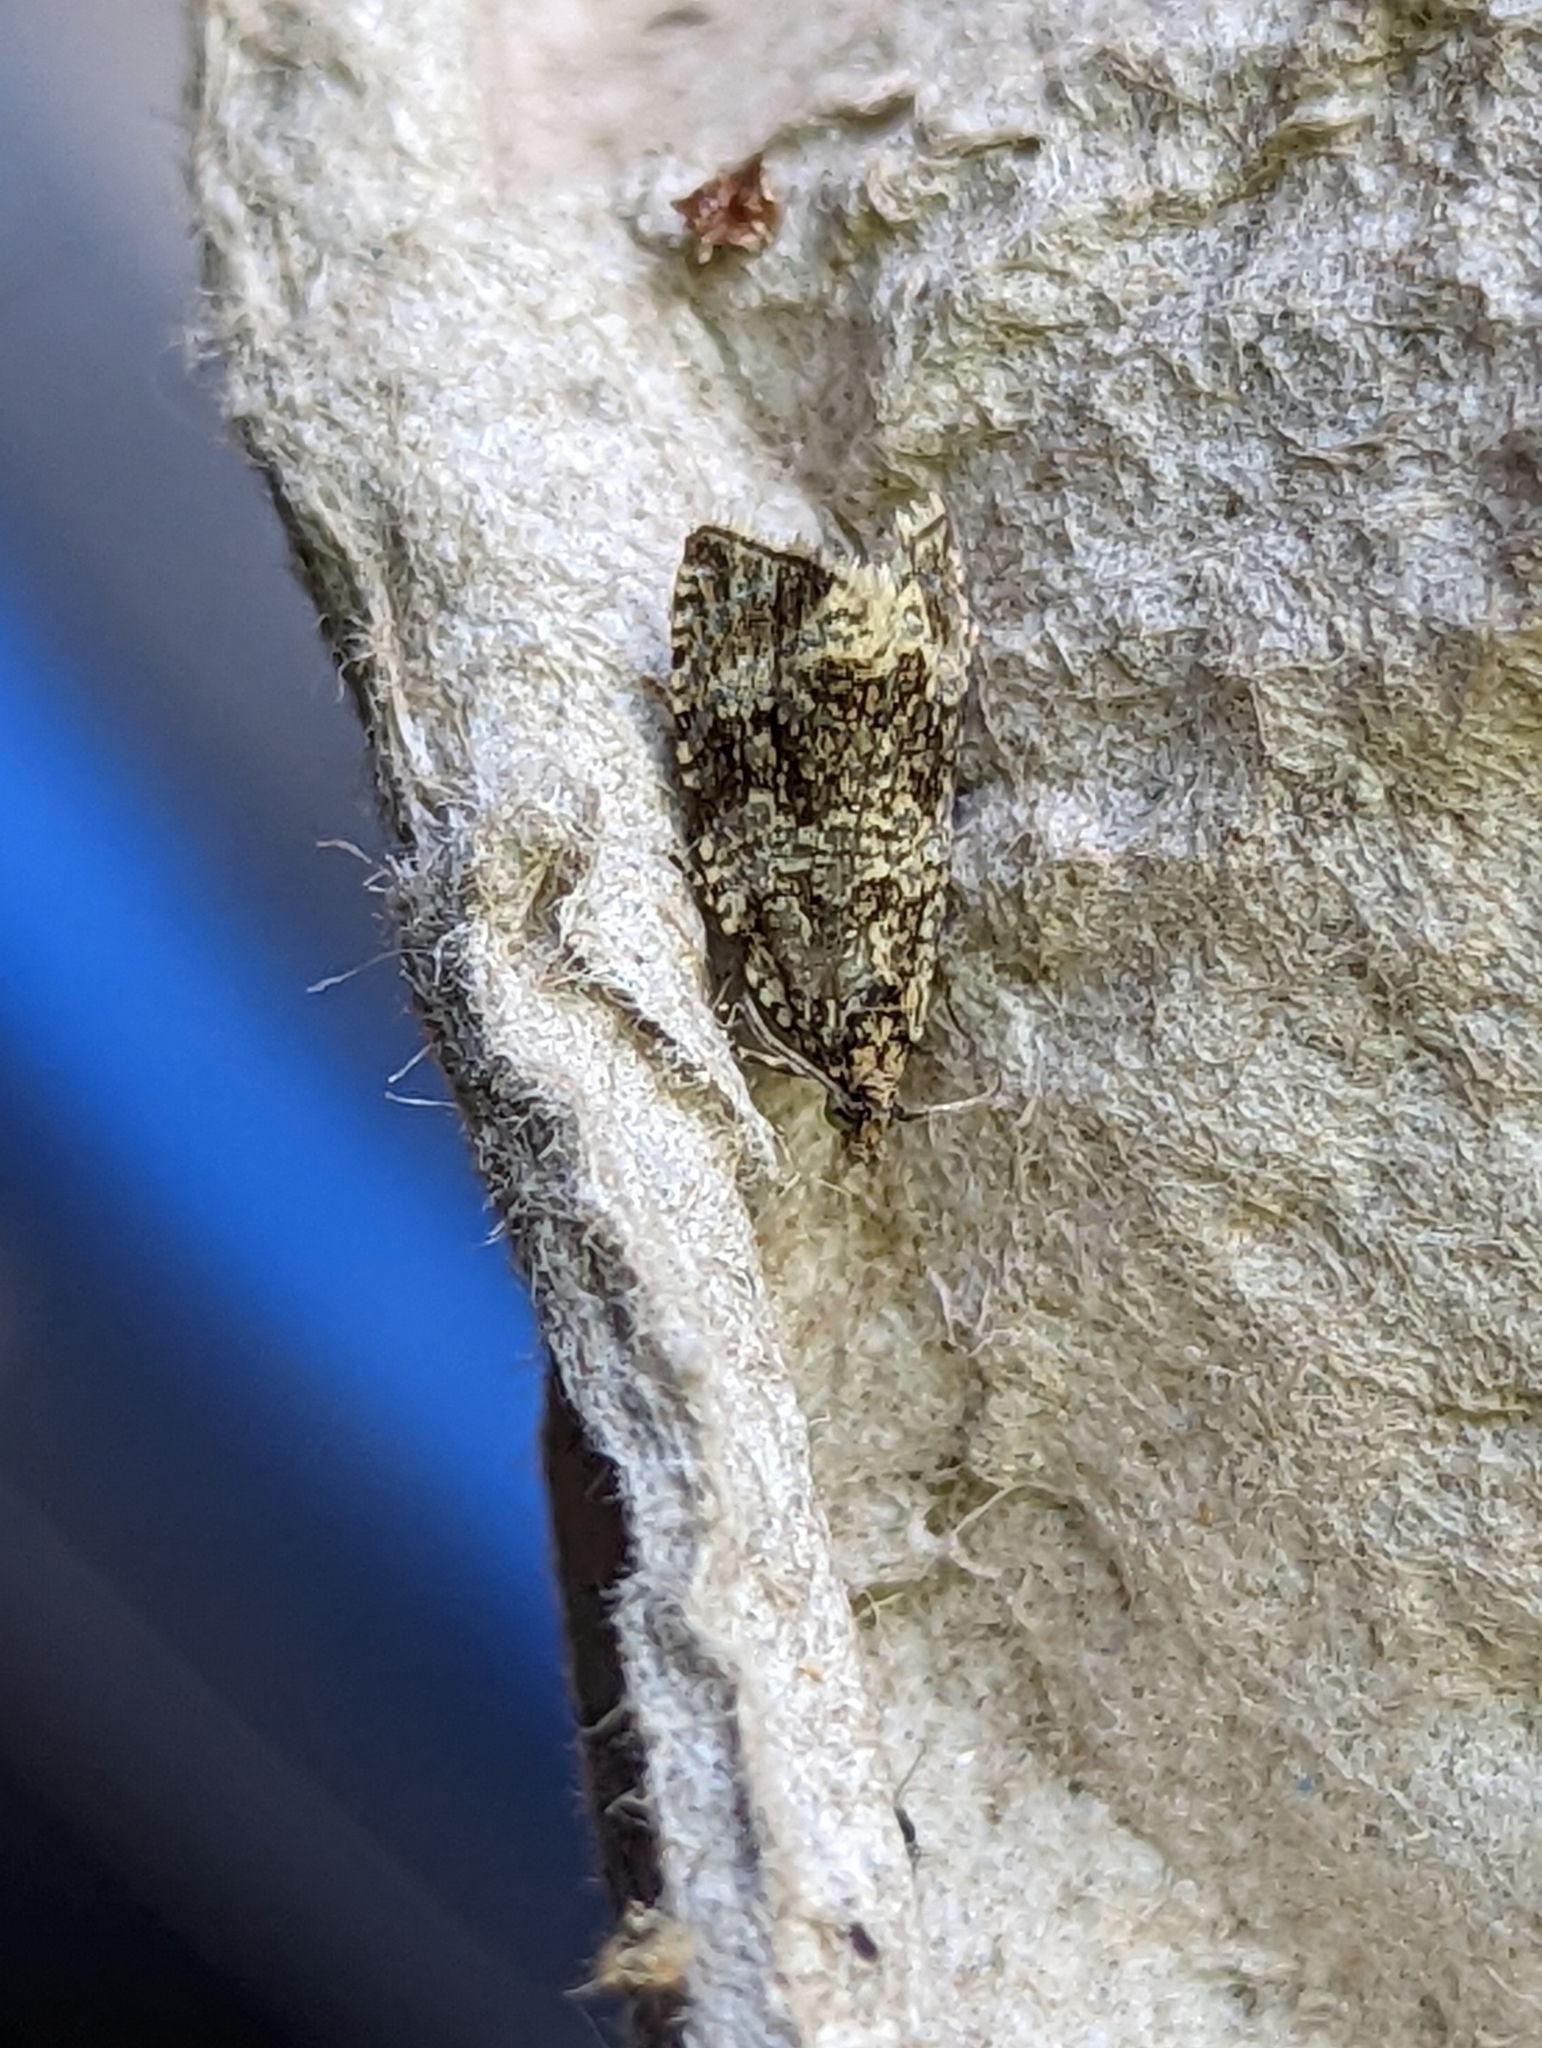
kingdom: Animalia
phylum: Arthropoda
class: Insecta
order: Lepidoptera
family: Tortricidae
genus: Syricoris
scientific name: Syricoris lacunana
